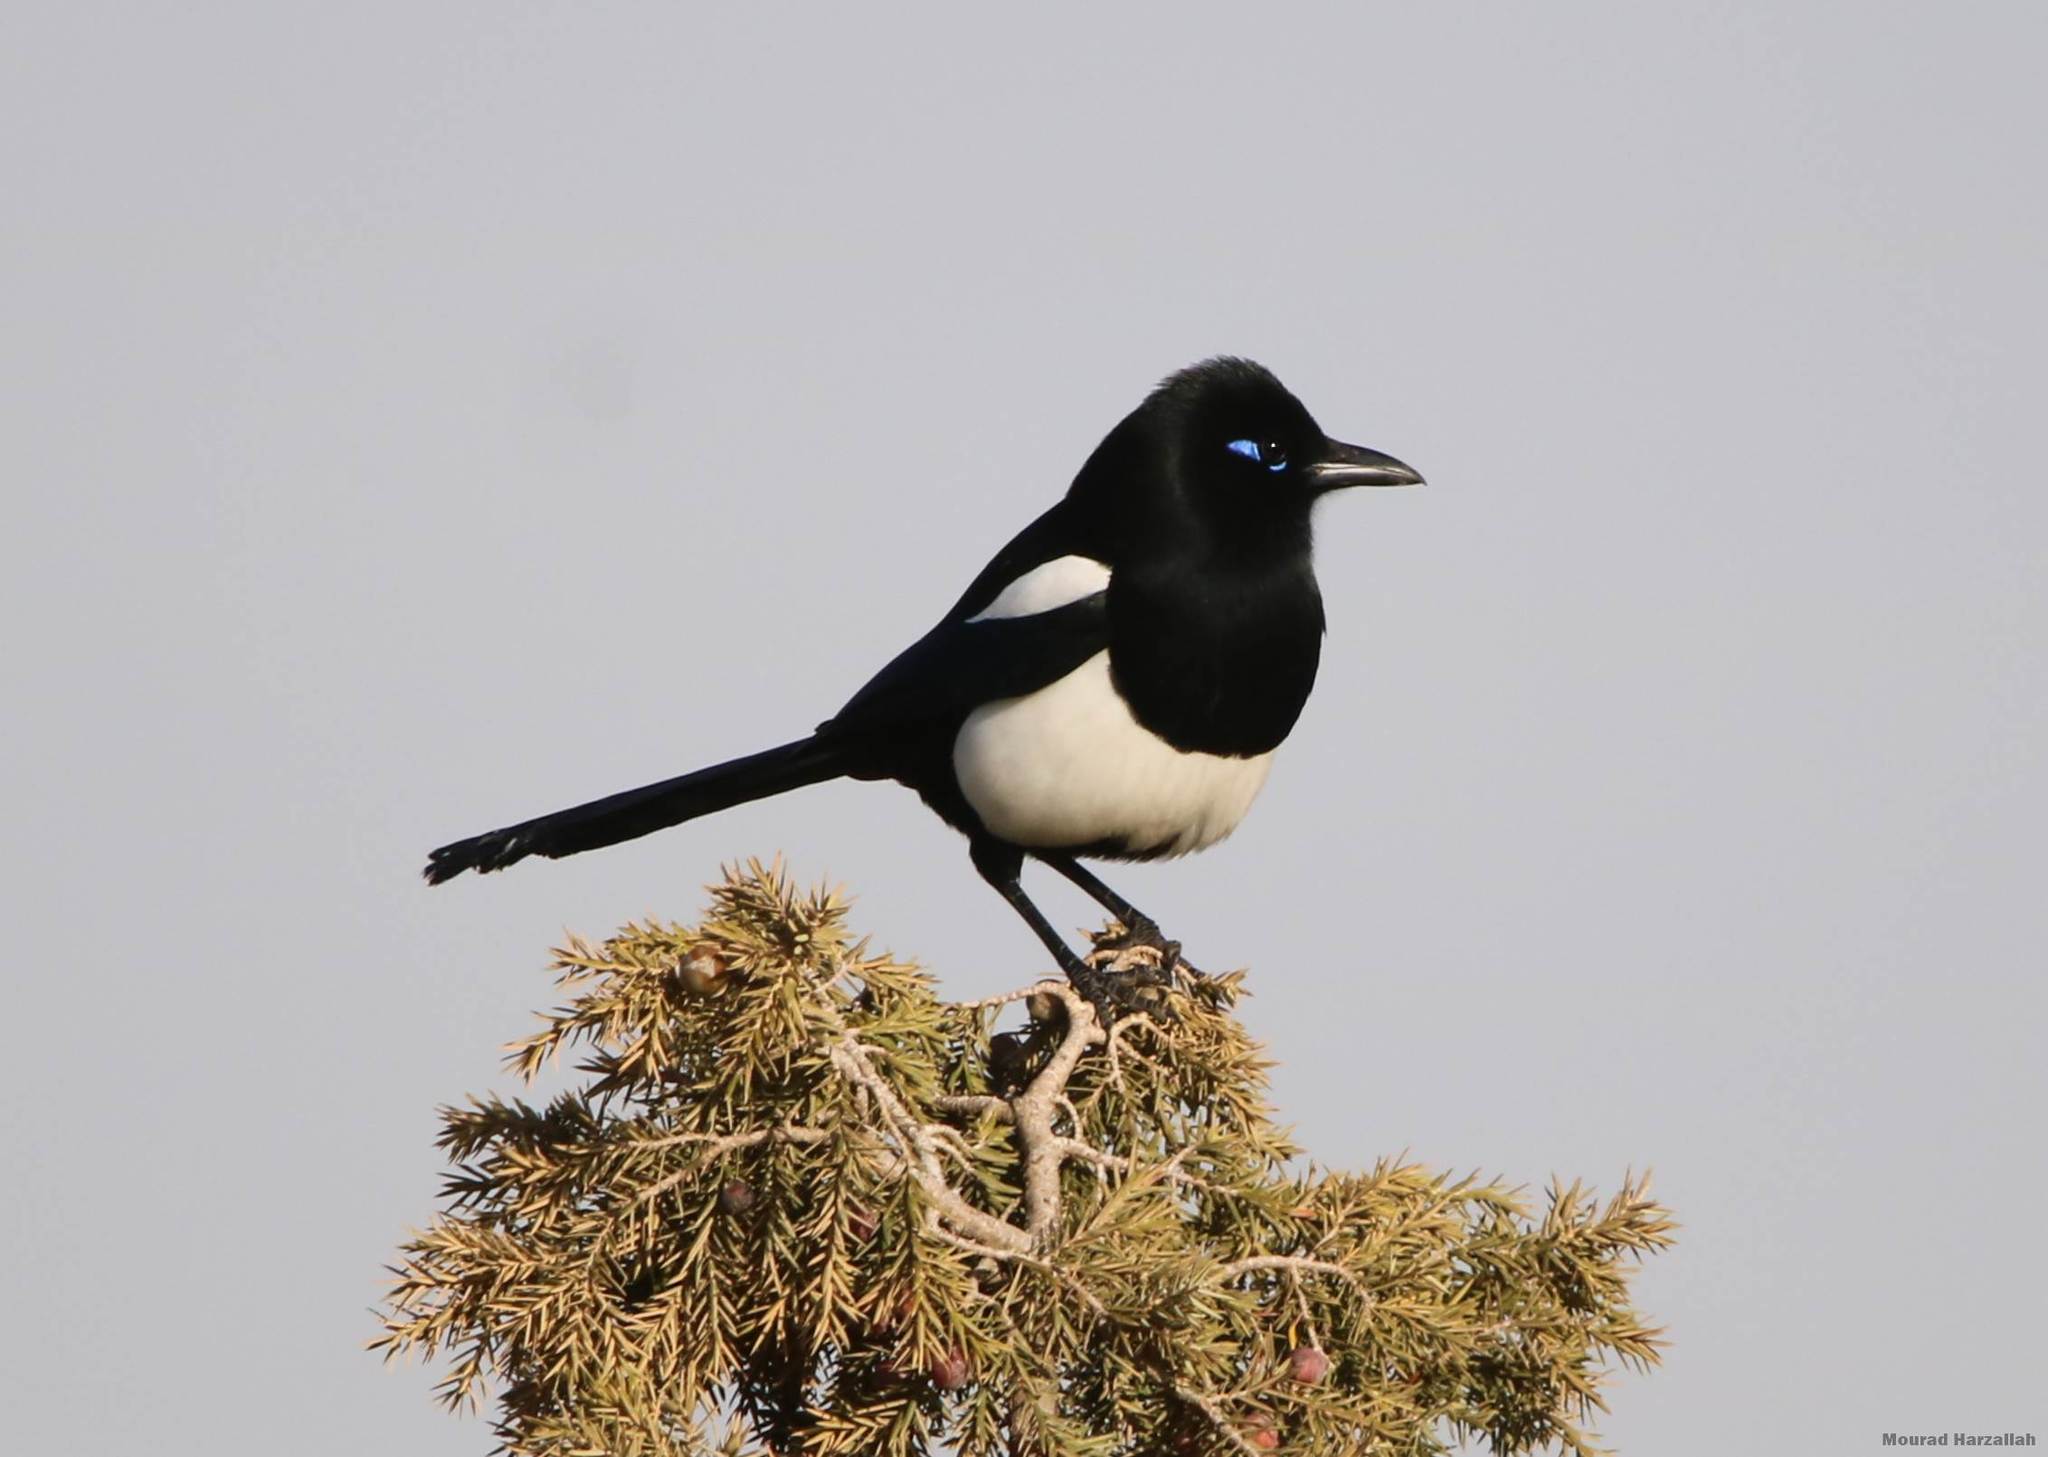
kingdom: Animalia
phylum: Chordata
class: Aves
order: Passeriformes
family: Corvidae
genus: Pica
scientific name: Pica mauritanica
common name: Maghreb magpie
